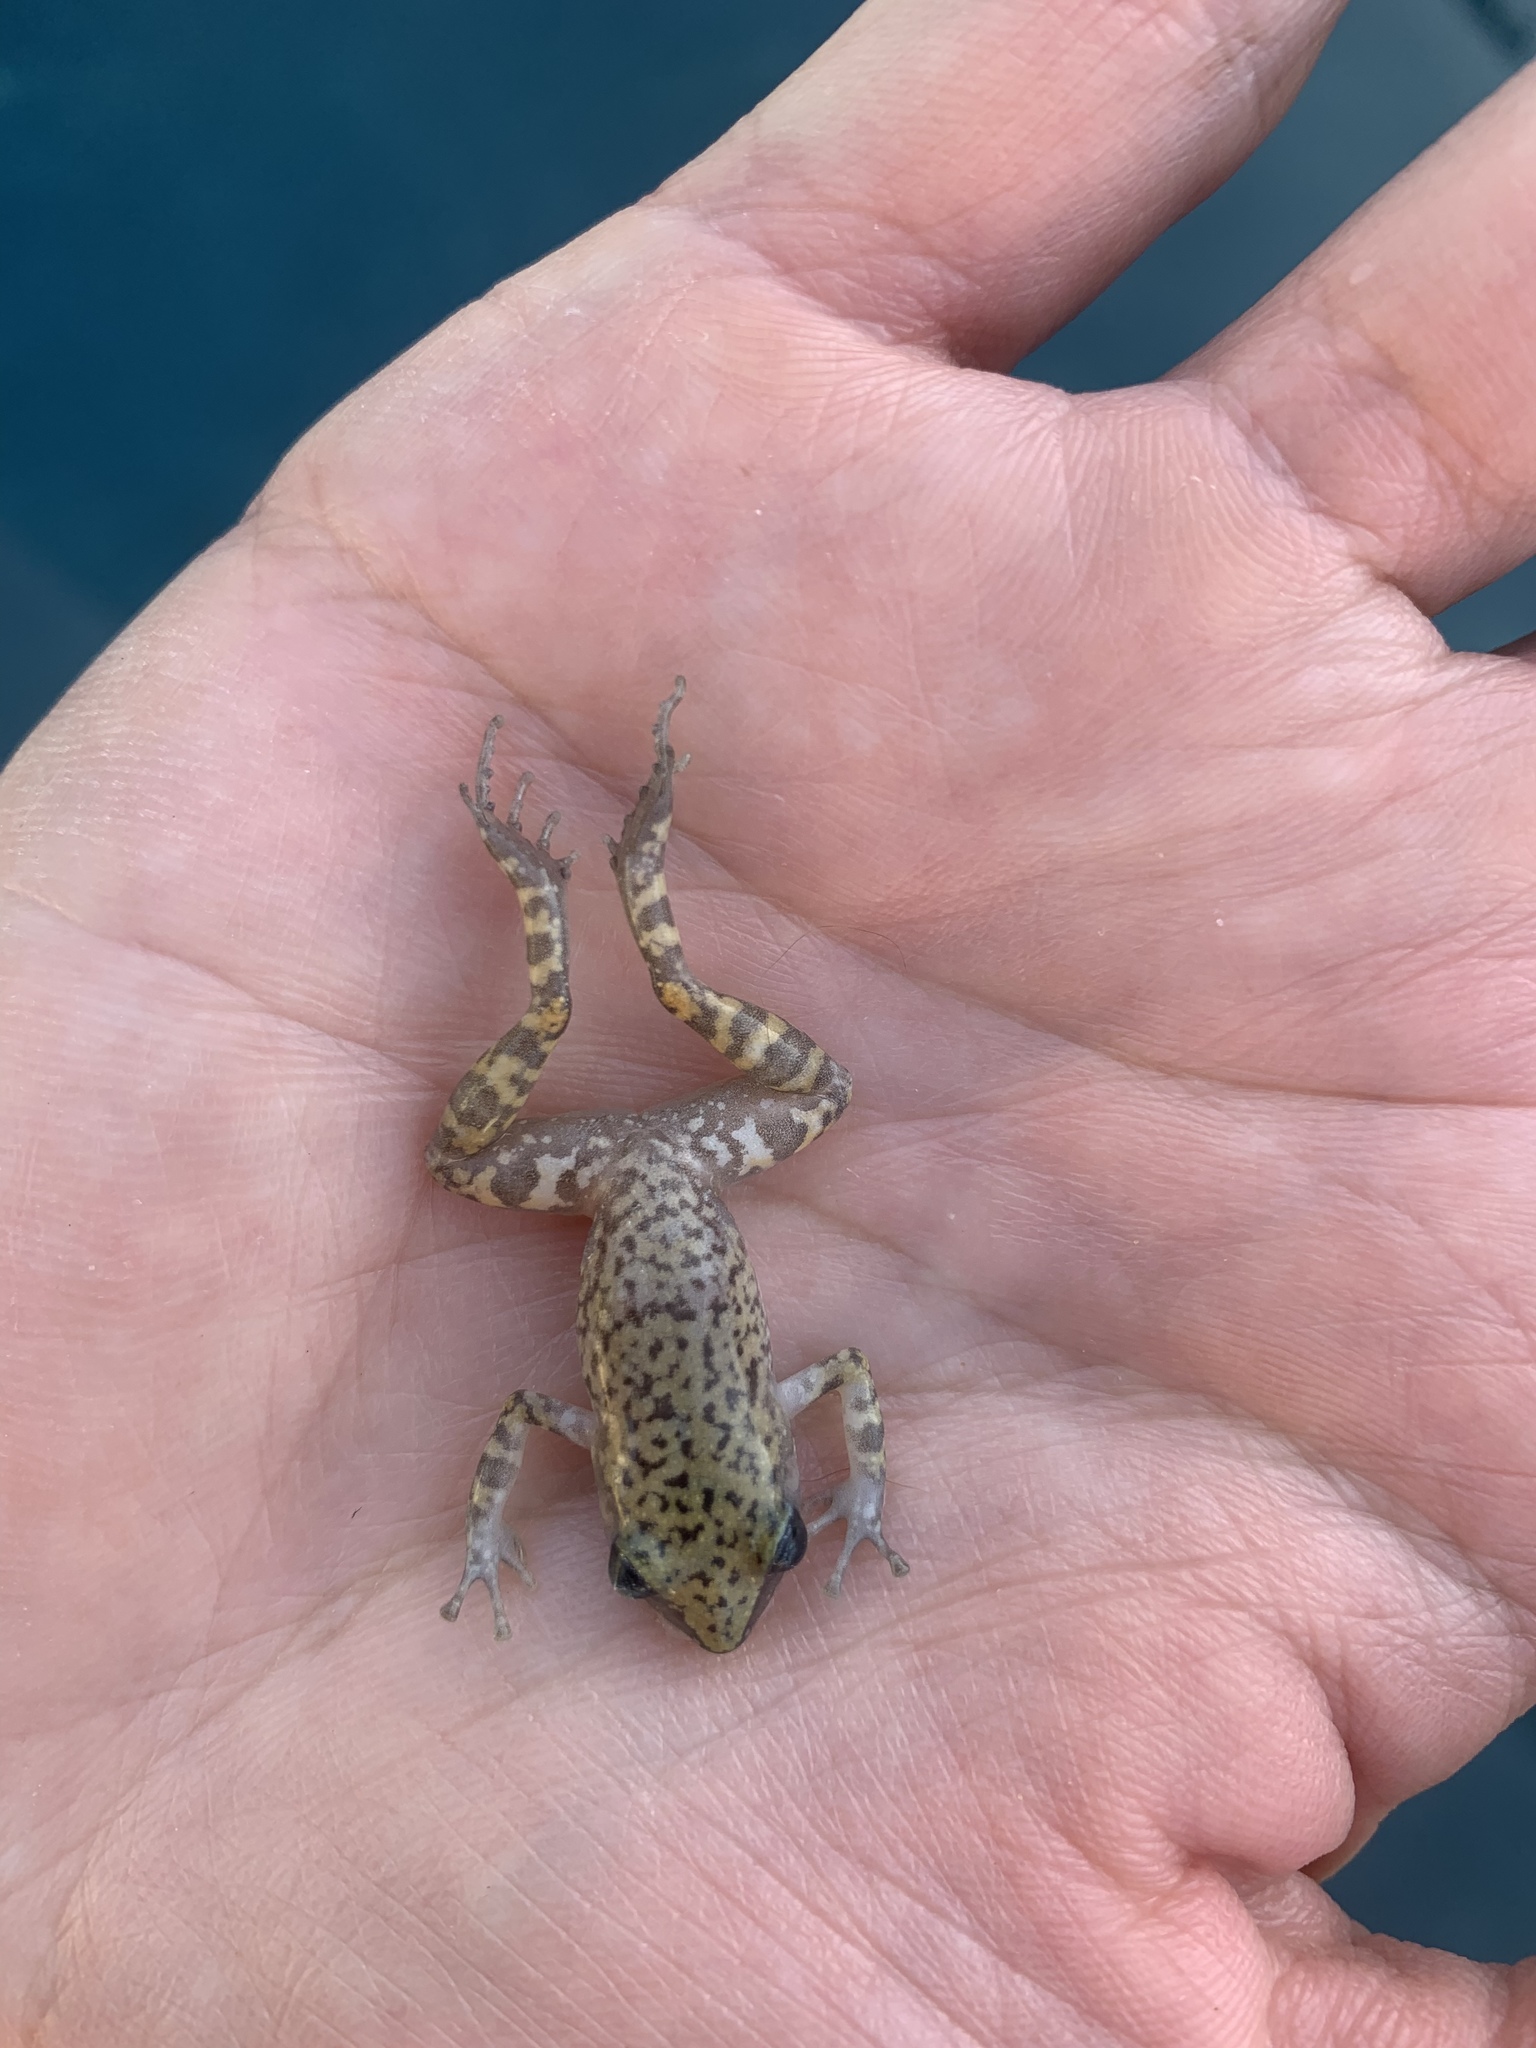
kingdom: Animalia
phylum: Chordata
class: Amphibia
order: Anura
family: Eleutherodactylidae
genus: Eleutherodactylus
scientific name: Eleutherodactylus marnockii
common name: Cliff chirping frog
